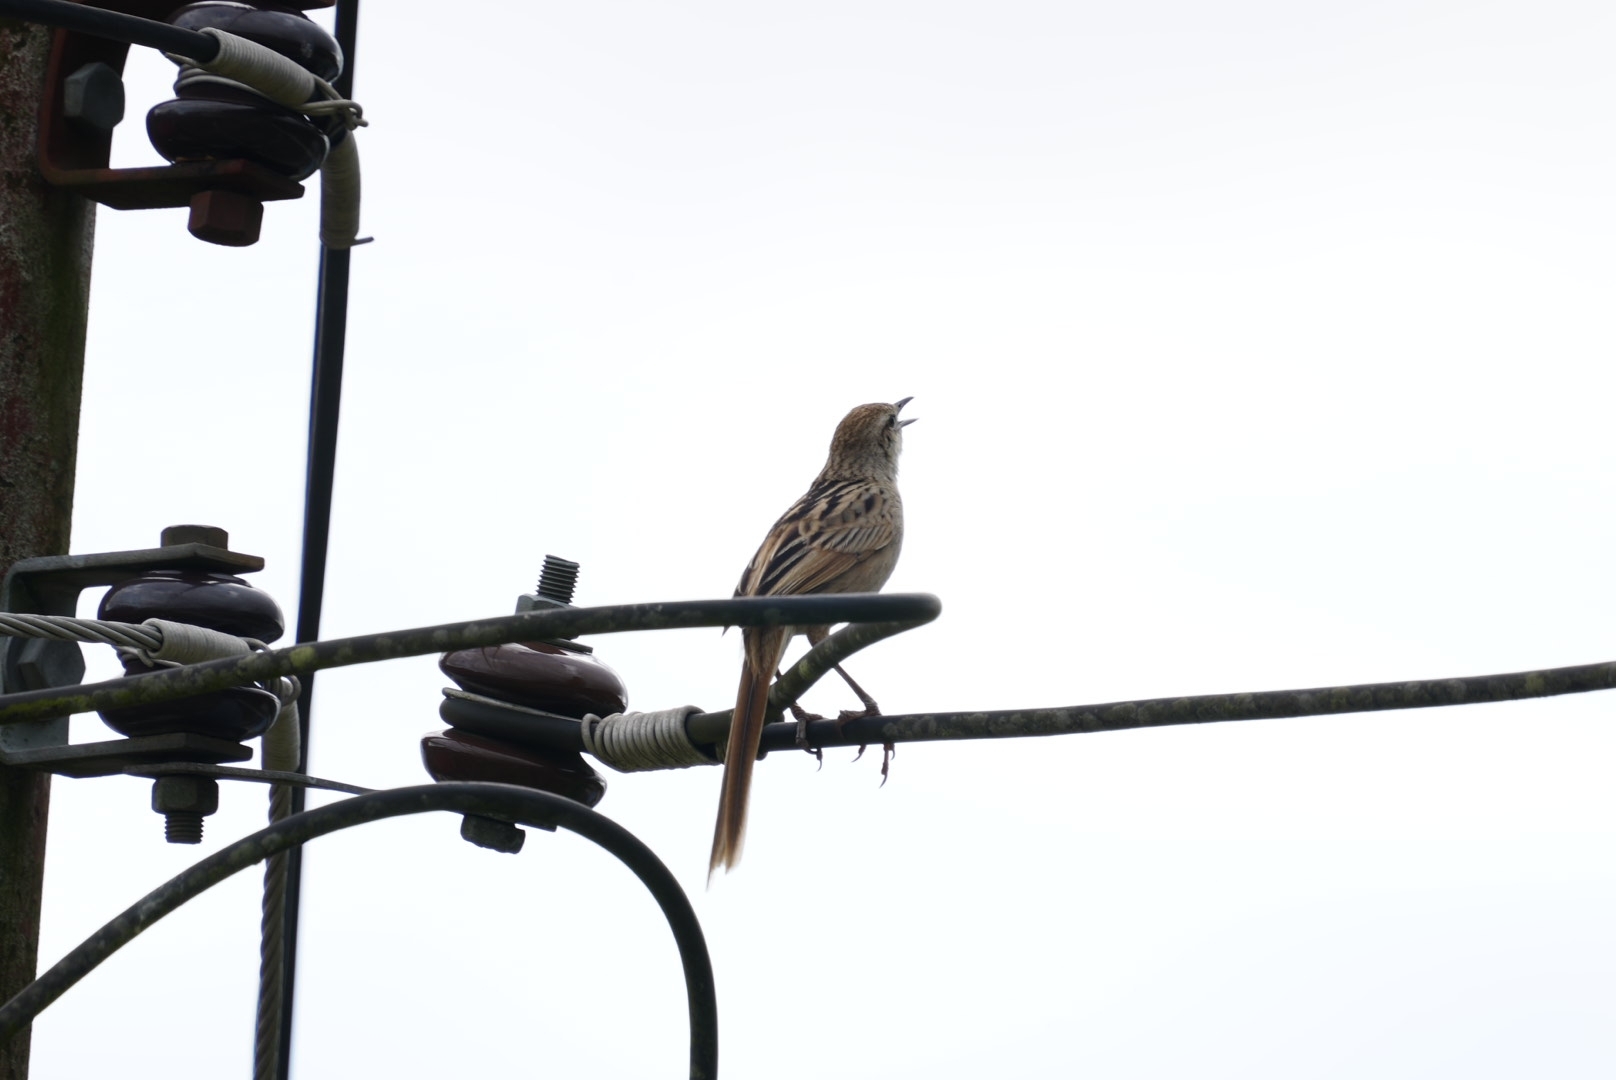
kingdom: Animalia
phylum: Chordata
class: Aves
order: Passeriformes
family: Locustellidae
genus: Megalurus
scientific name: Megalurus palustris
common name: Striated grassbird
